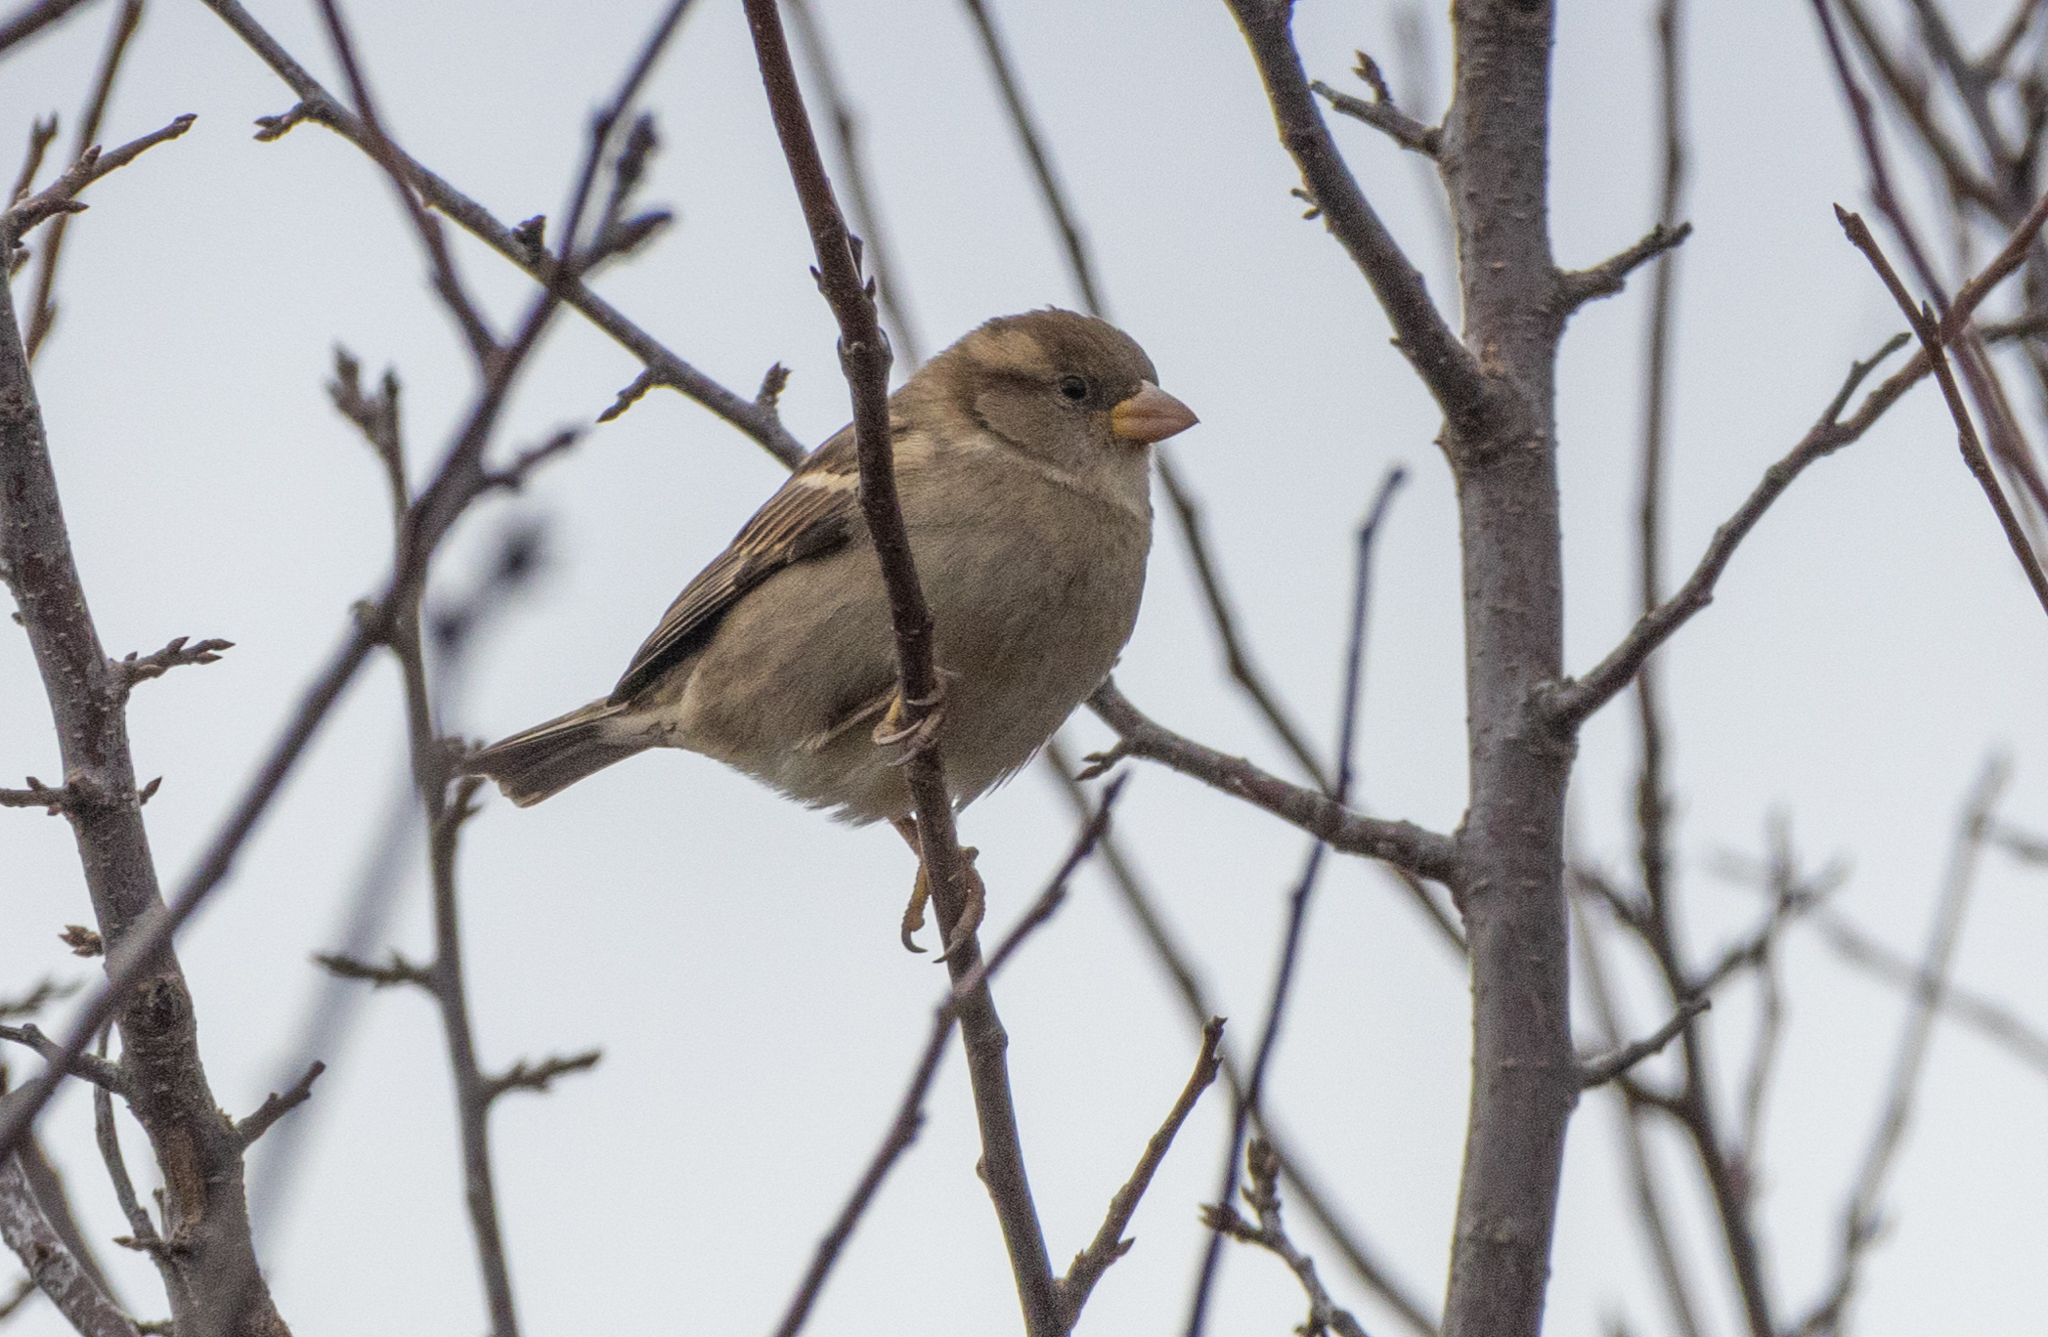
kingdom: Animalia
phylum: Chordata
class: Aves
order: Passeriformes
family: Passeridae
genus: Passer
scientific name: Passer domesticus
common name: House sparrow
